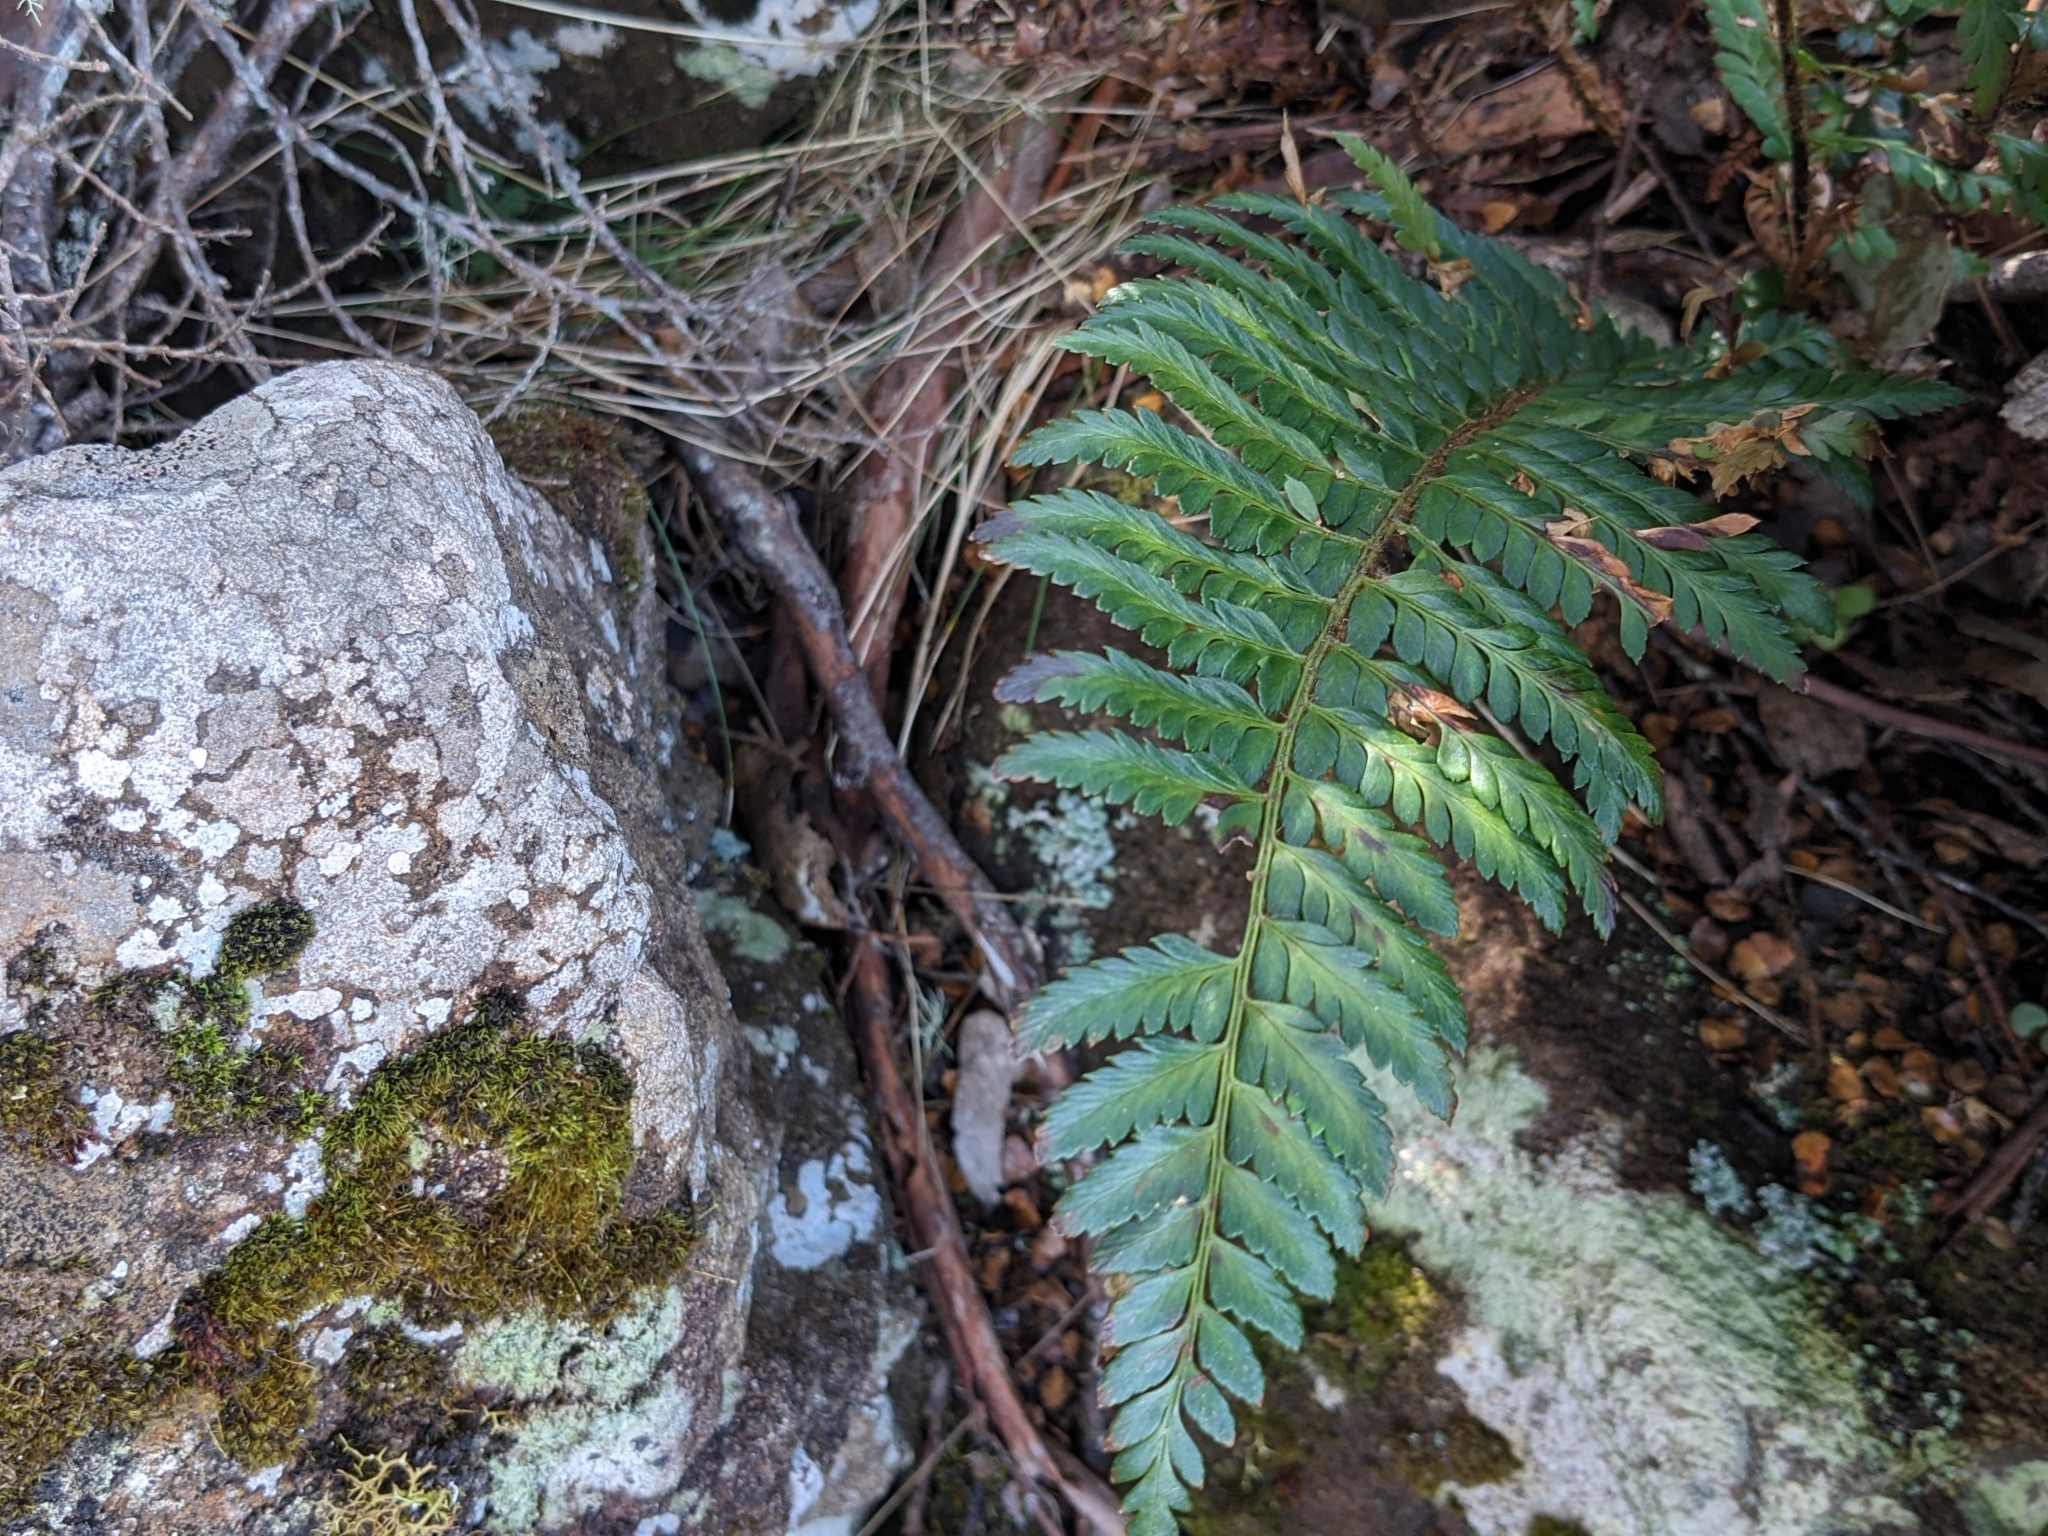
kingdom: Plantae
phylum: Tracheophyta
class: Polypodiopsida
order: Polypodiales
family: Dryopteridaceae
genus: Polystichum
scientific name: Polystichum proliferum
